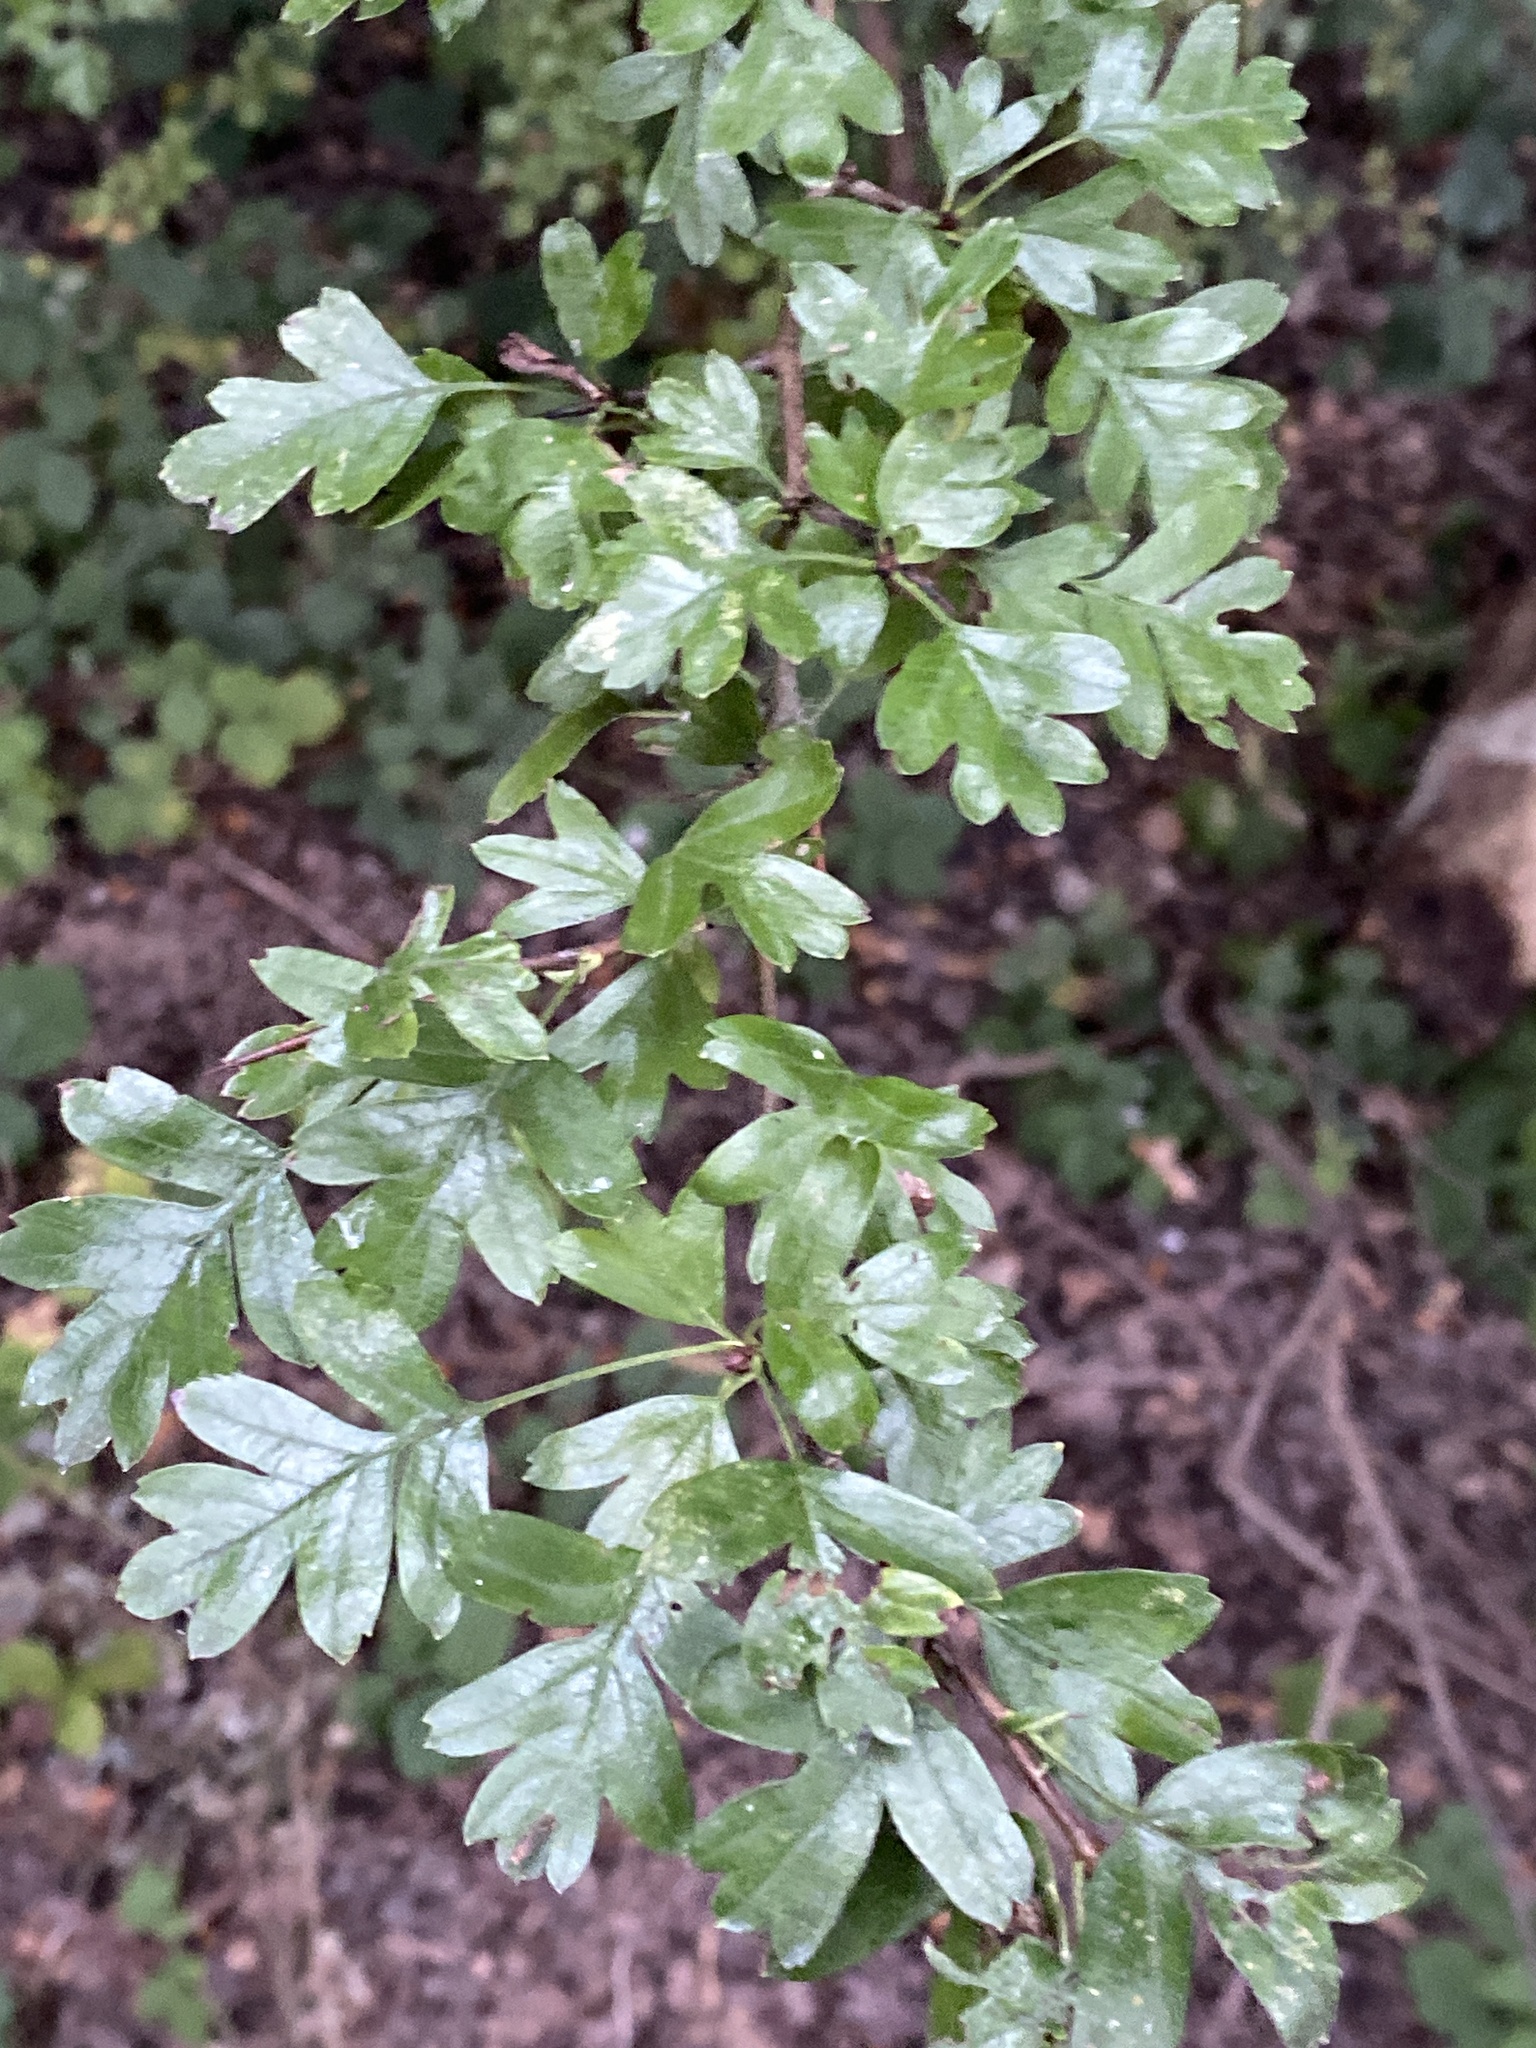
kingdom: Plantae
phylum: Tracheophyta
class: Magnoliopsida
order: Rosales
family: Rosaceae
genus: Crataegus
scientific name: Crataegus monogyna
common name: Hawthorn
